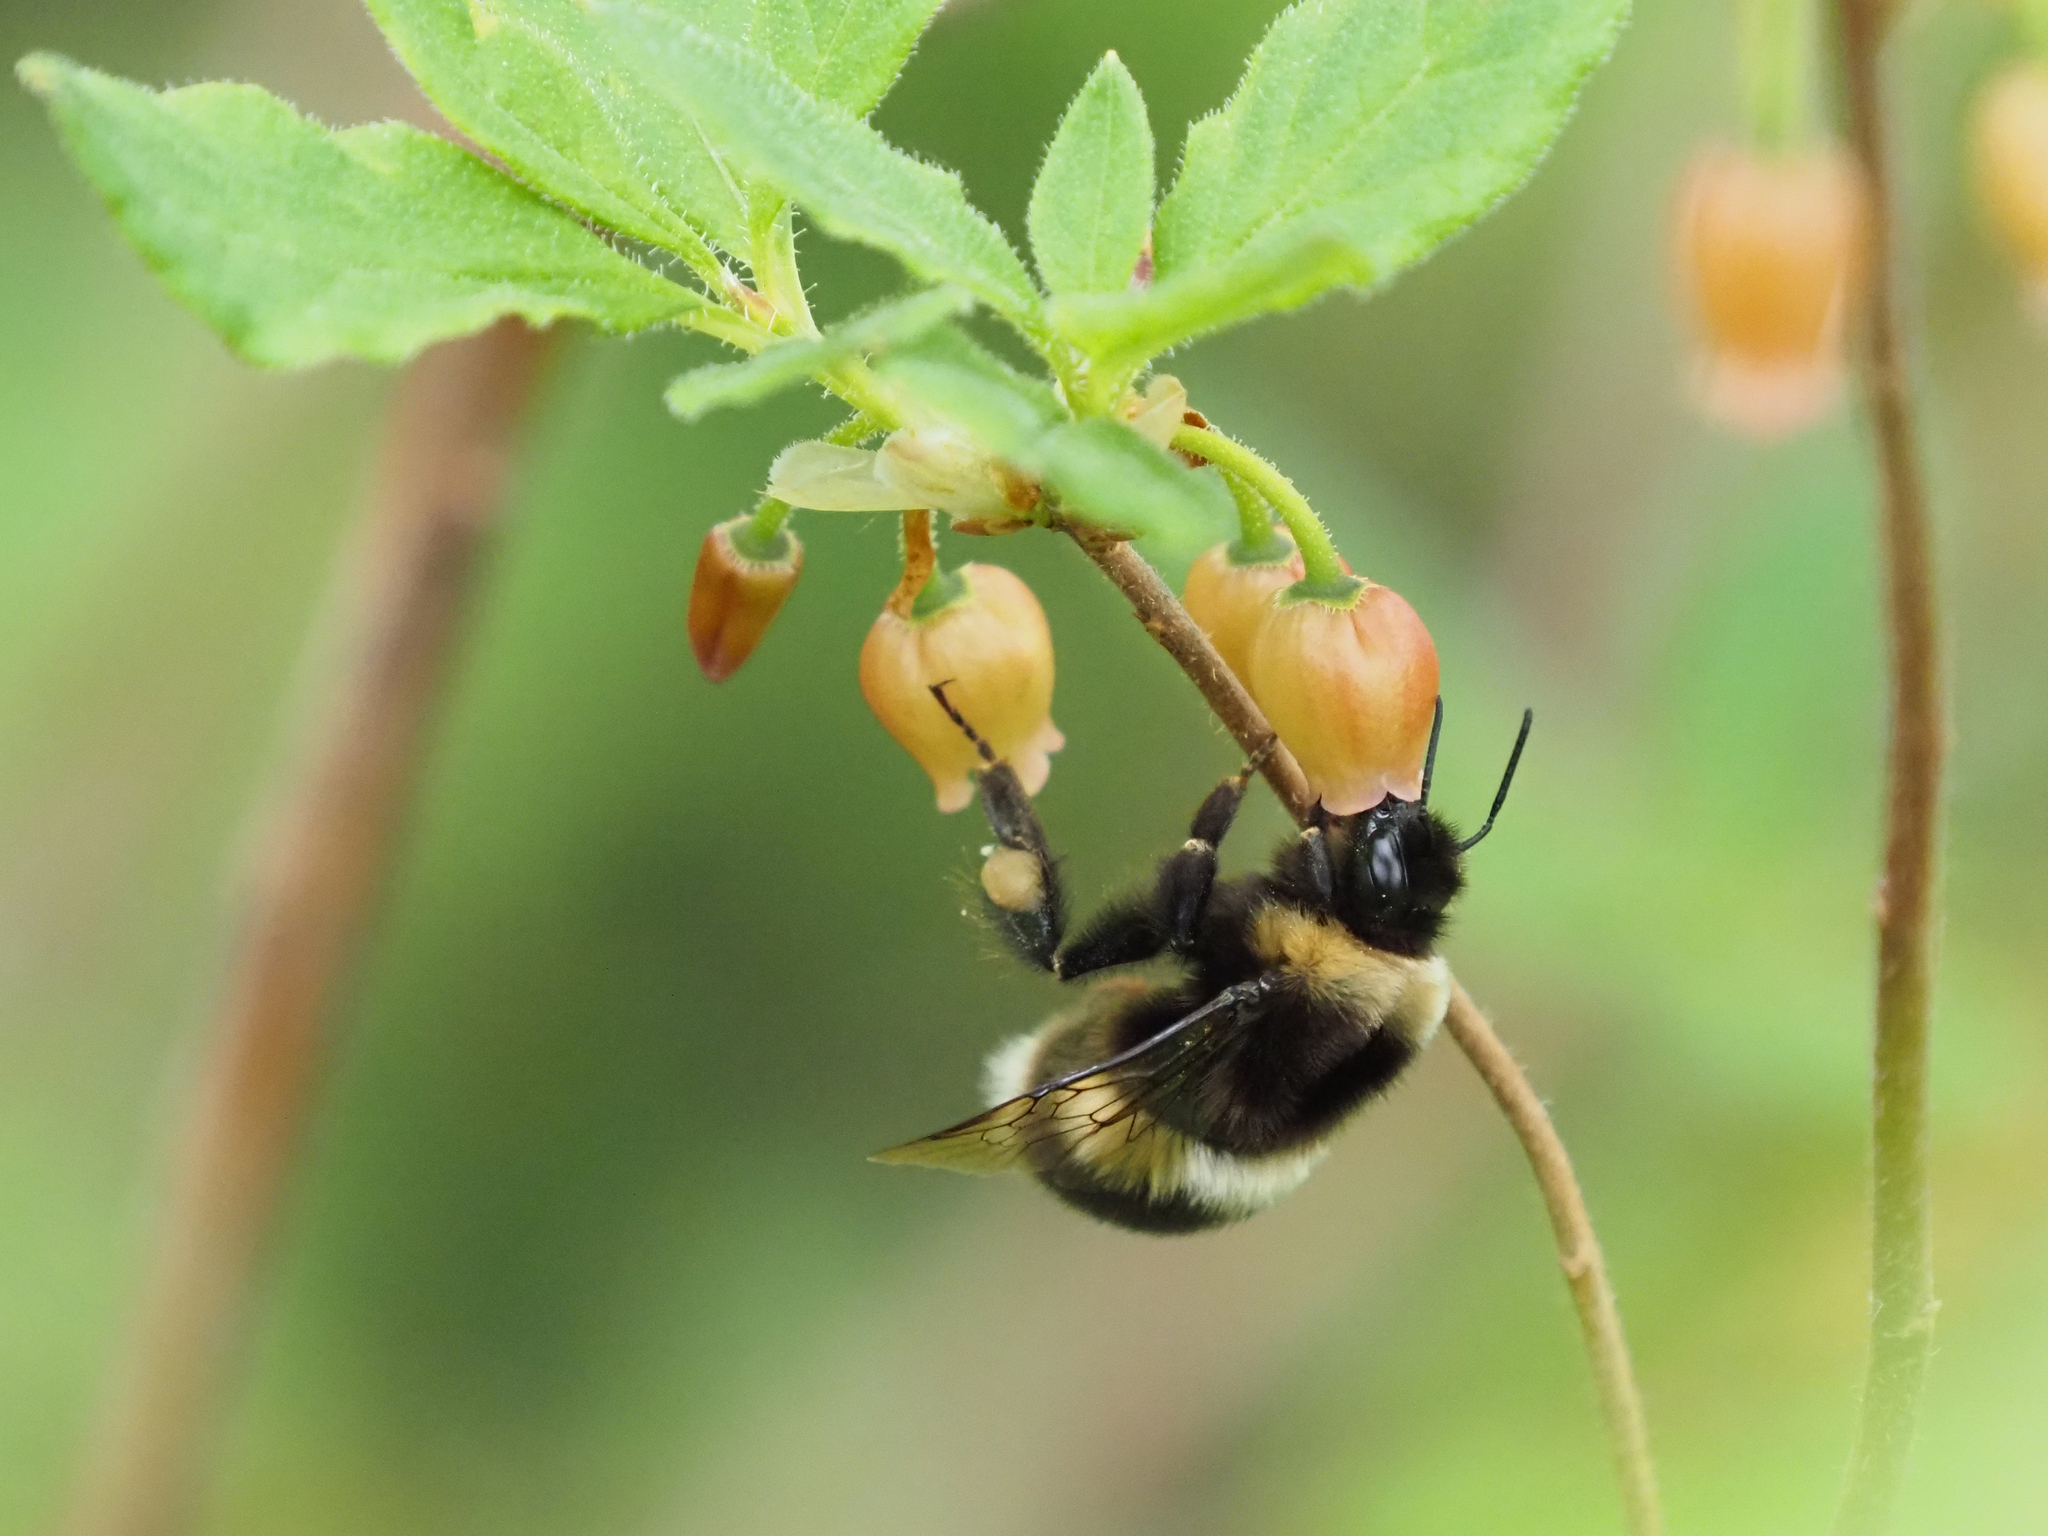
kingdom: Animalia
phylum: Arthropoda
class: Insecta
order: Hymenoptera
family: Apidae
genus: Bombus
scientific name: Bombus cryptarum
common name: Cryptic bumblebee
